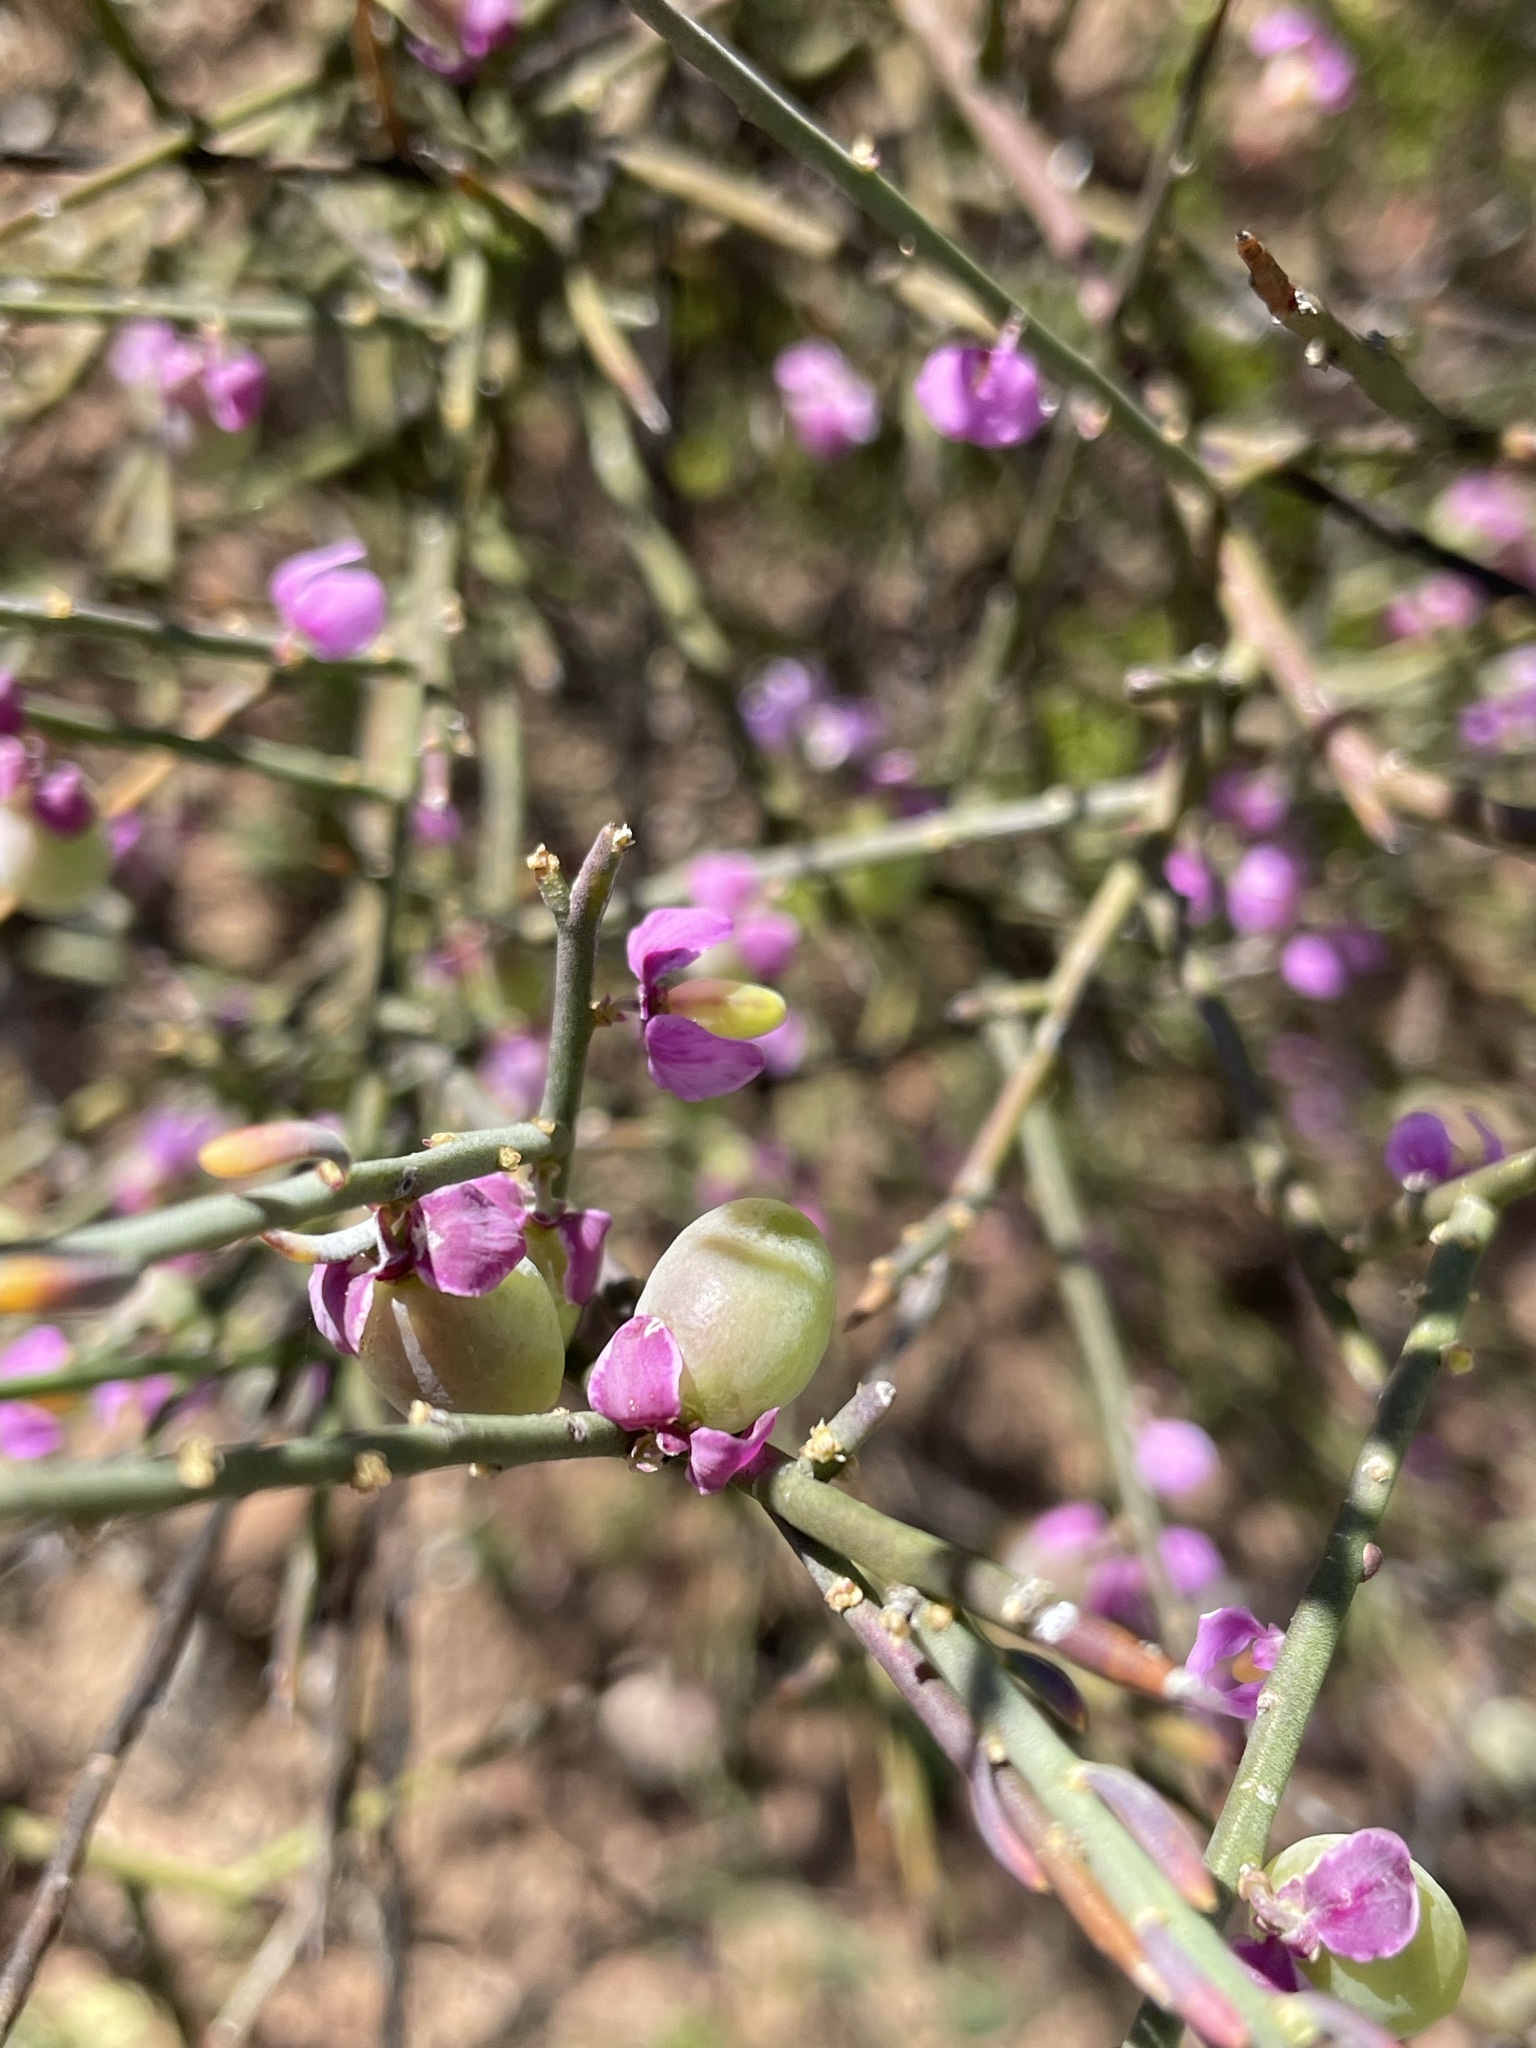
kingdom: Plantae
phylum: Tracheophyta
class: Magnoliopsida
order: Fabales
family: Polygalaceae
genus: Muraltia
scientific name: Muraltia spinosa
